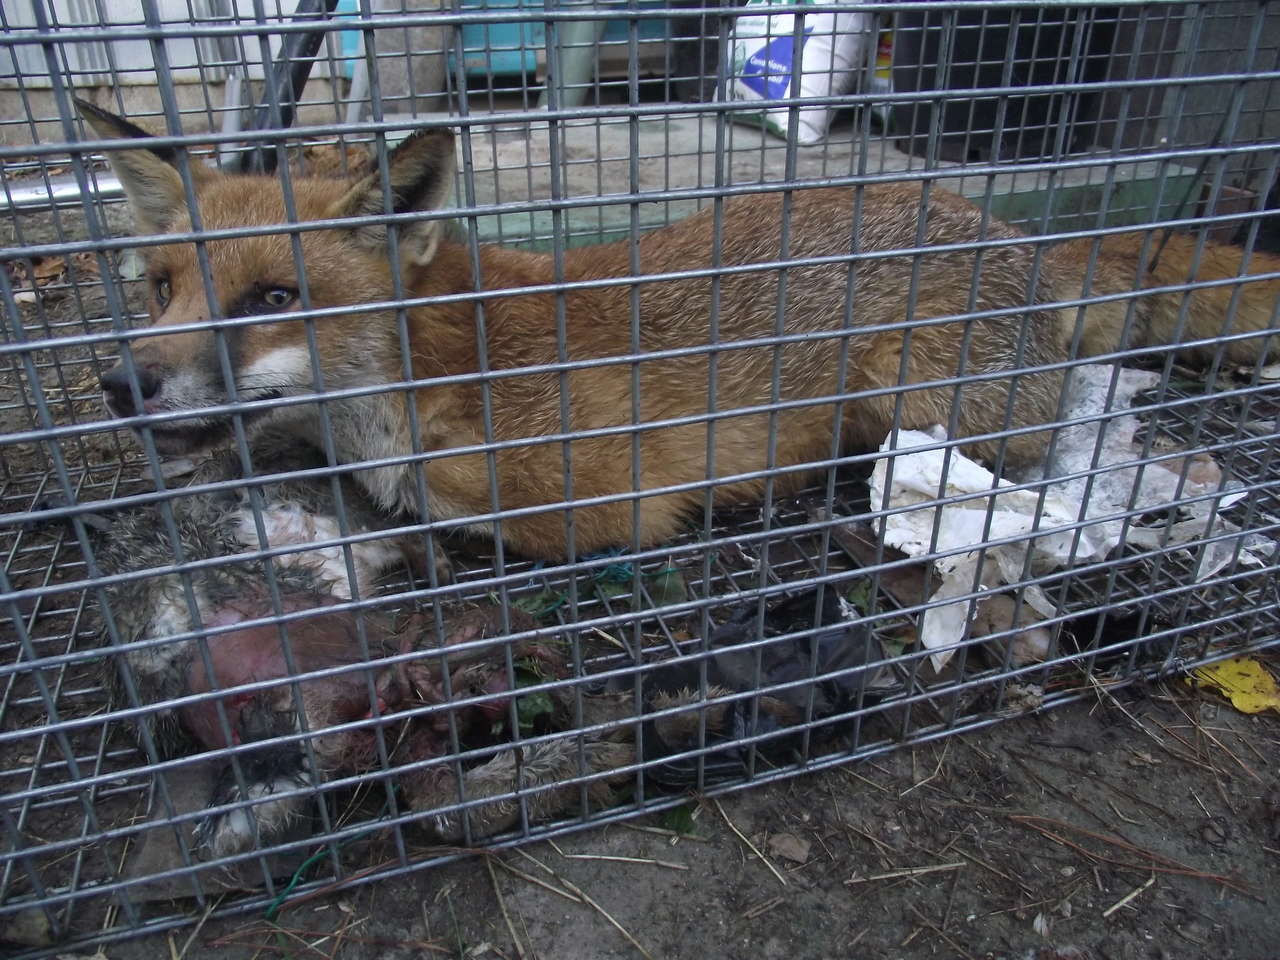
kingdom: Animalia
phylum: Chordata
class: Mammalia
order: Carnivora
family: Canidae
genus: Vulpes
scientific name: Vulpes vulpes
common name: Red fox
